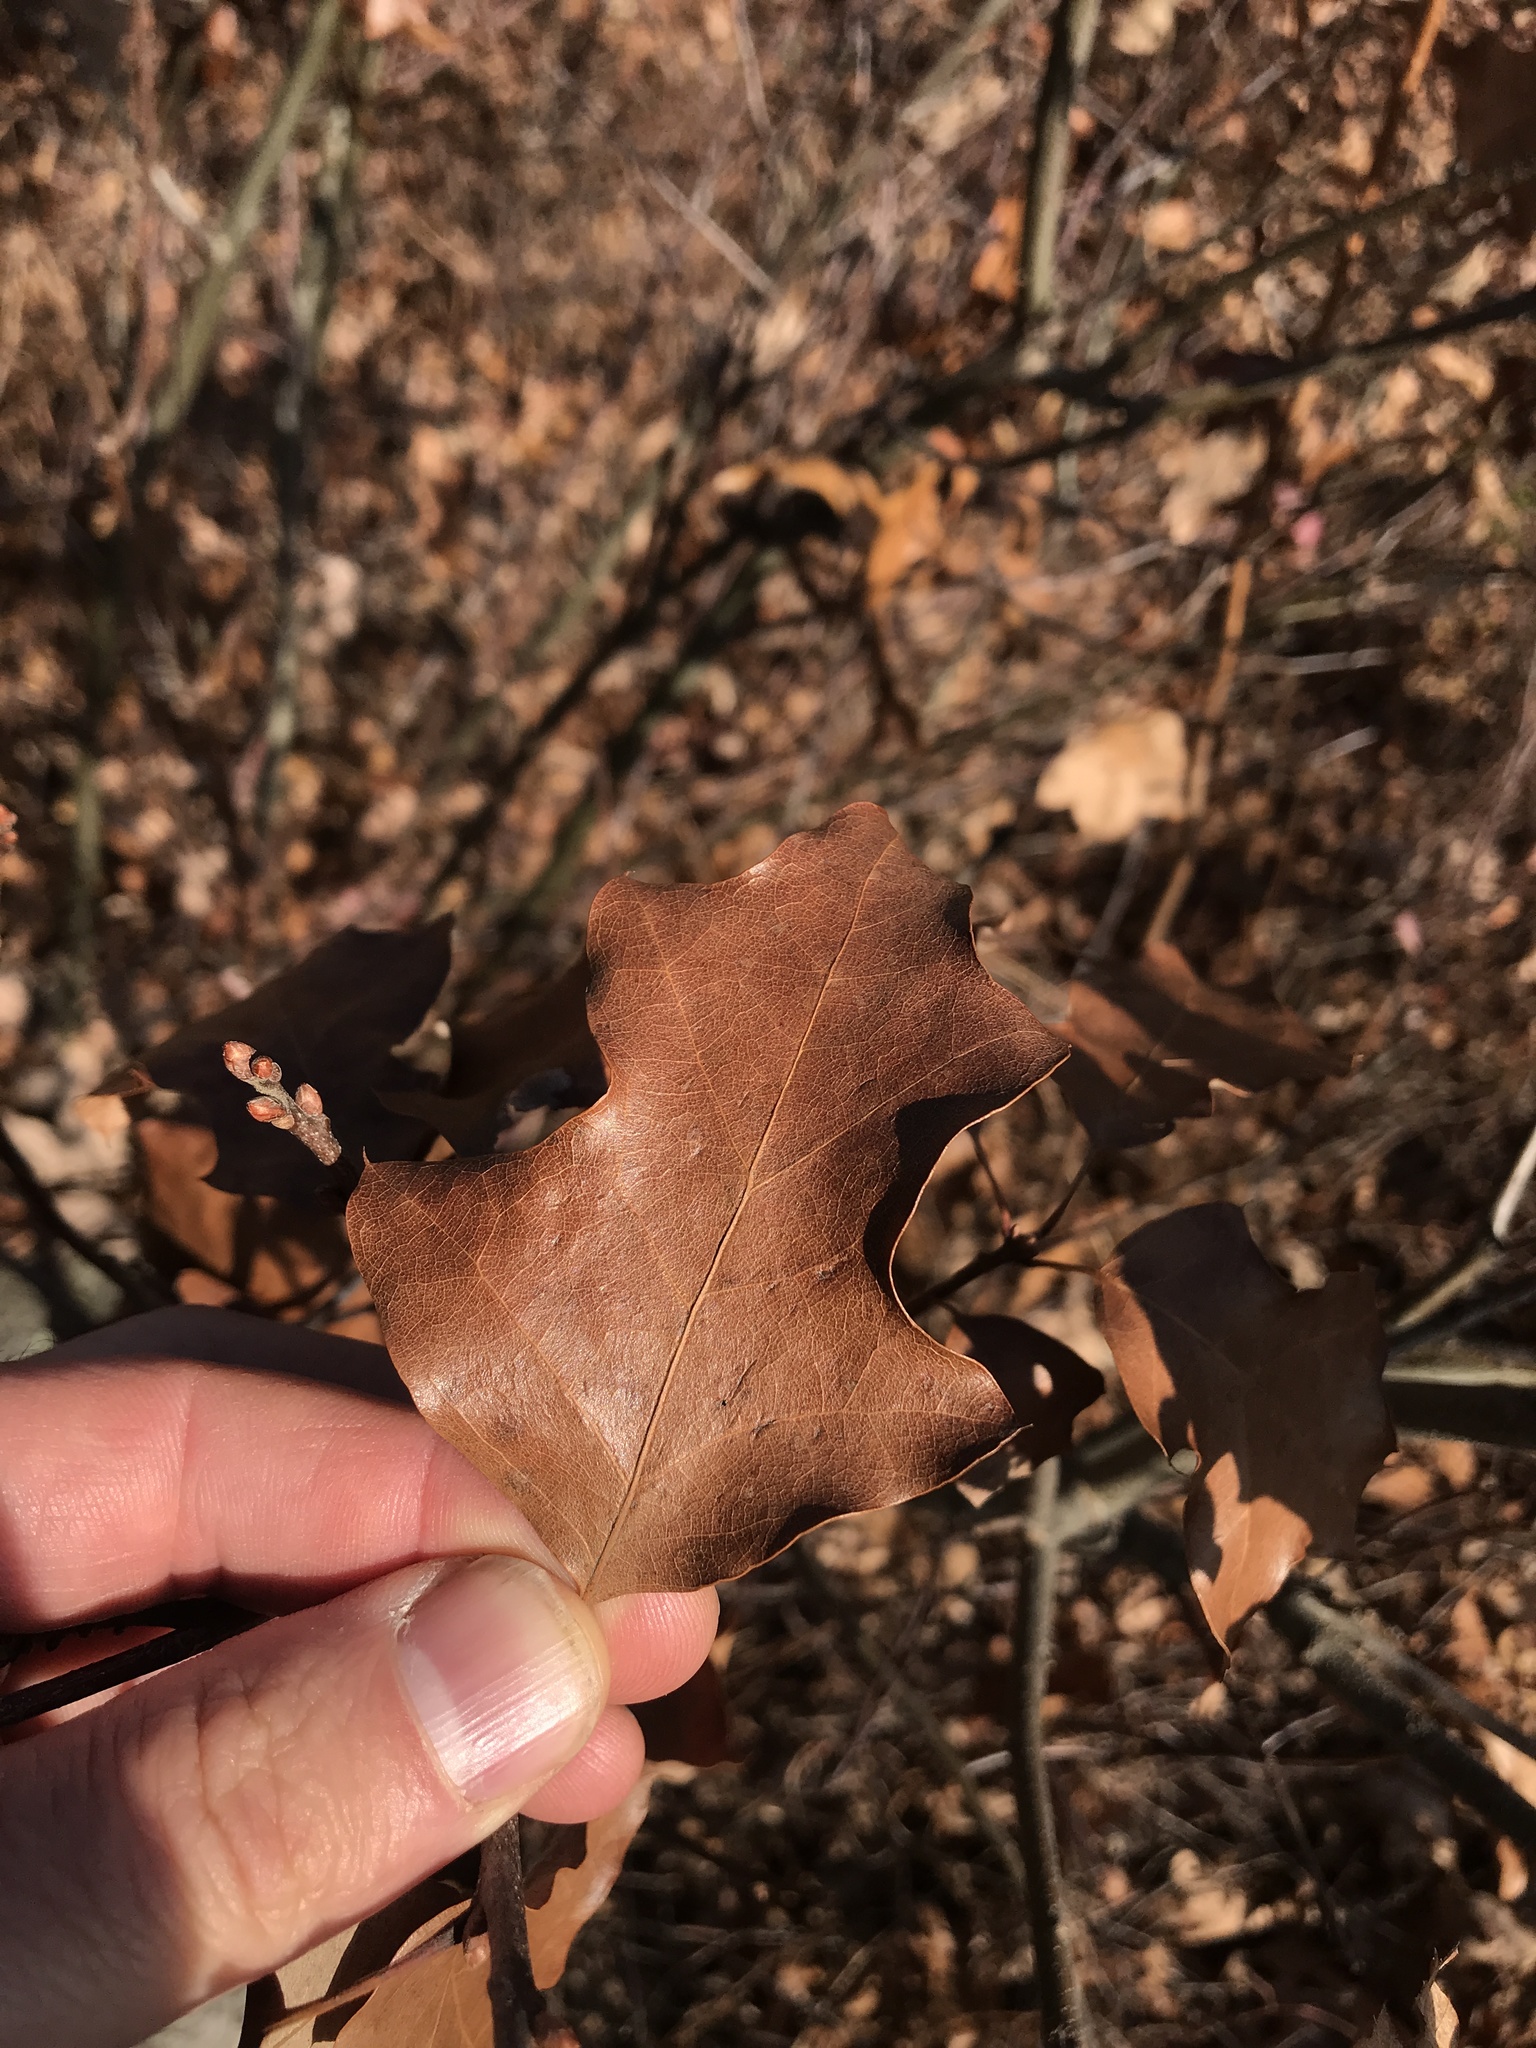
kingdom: Plantae
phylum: Tracheophyta
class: Magnoliopsida
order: Fagales
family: Fagaceae
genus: Quercus
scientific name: Quercus ilicifolia
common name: Bear oak
